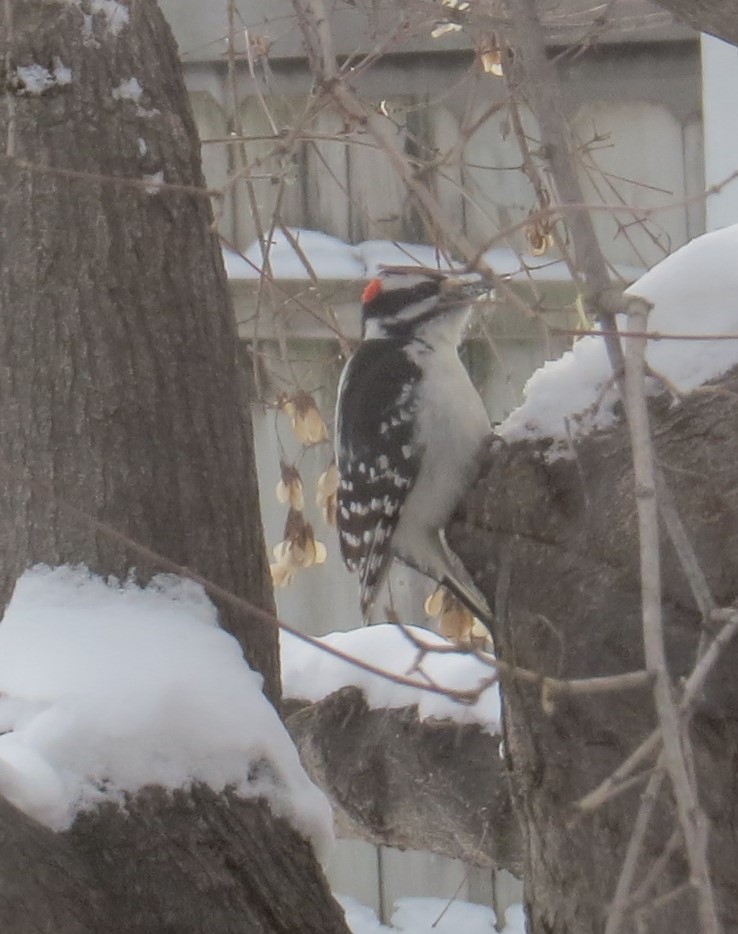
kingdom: Animalia
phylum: Chordata
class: Aves
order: Piciformes
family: Picidae
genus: Leuconotopicus
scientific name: Leuconotopicus villosus
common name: Hairy woodpecker
